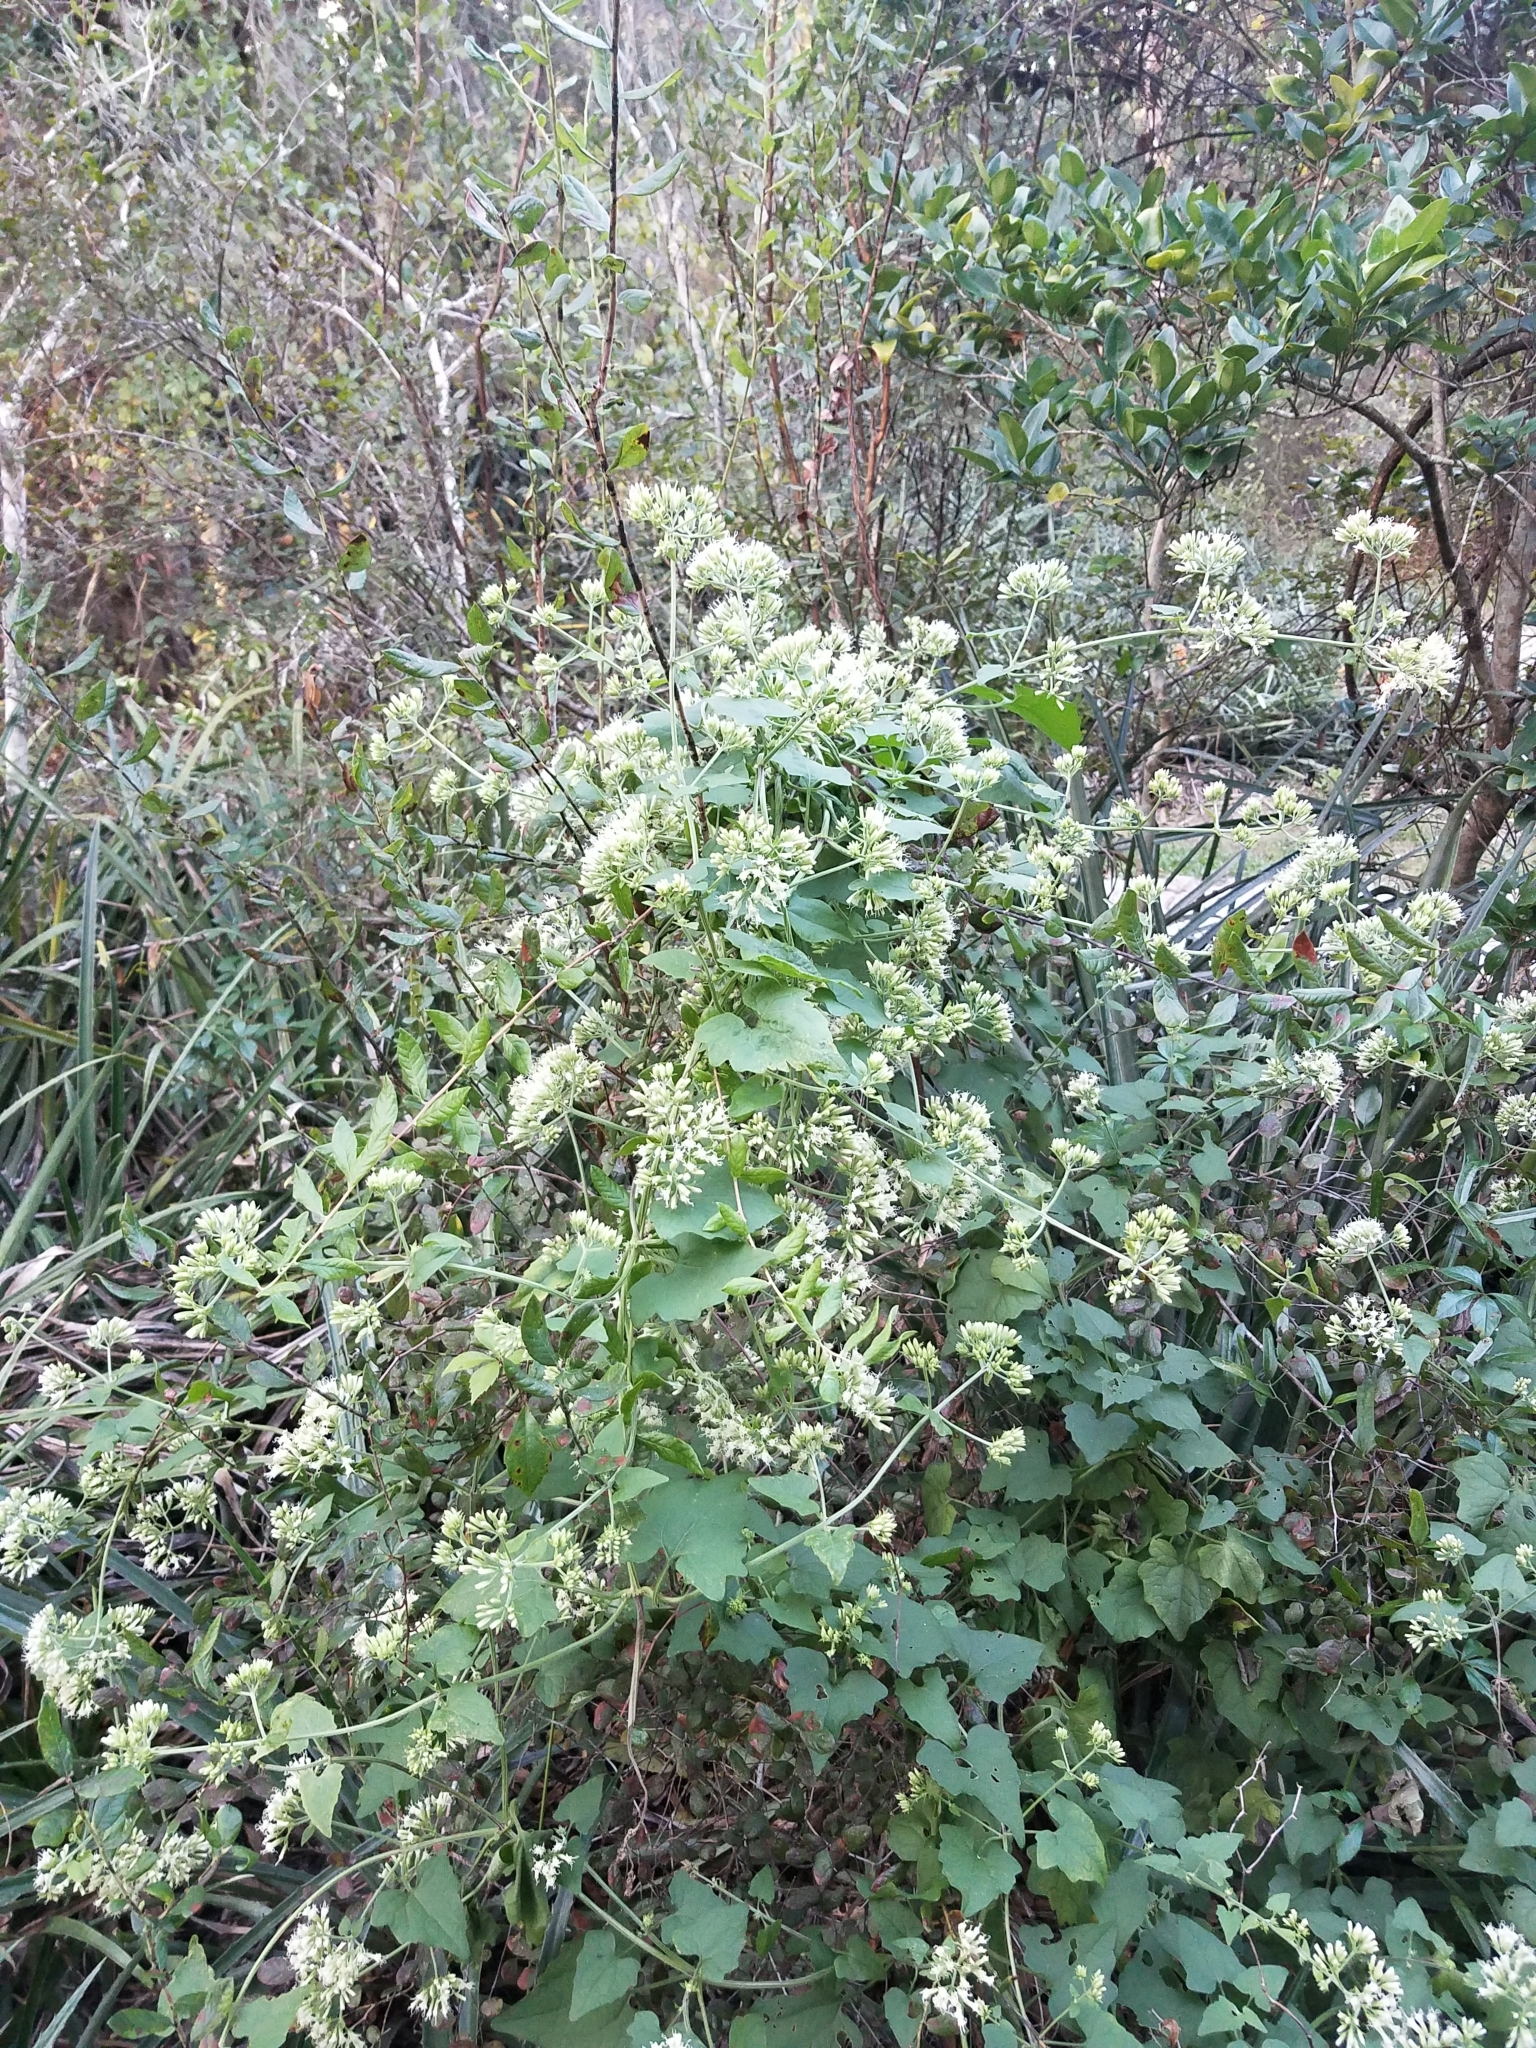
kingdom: Plantae
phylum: Tracheophyta
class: Magnoliopsida
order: Asterales
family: Asteraceae
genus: Mikania
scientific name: Mikania scandens
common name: Climbing hempvine
